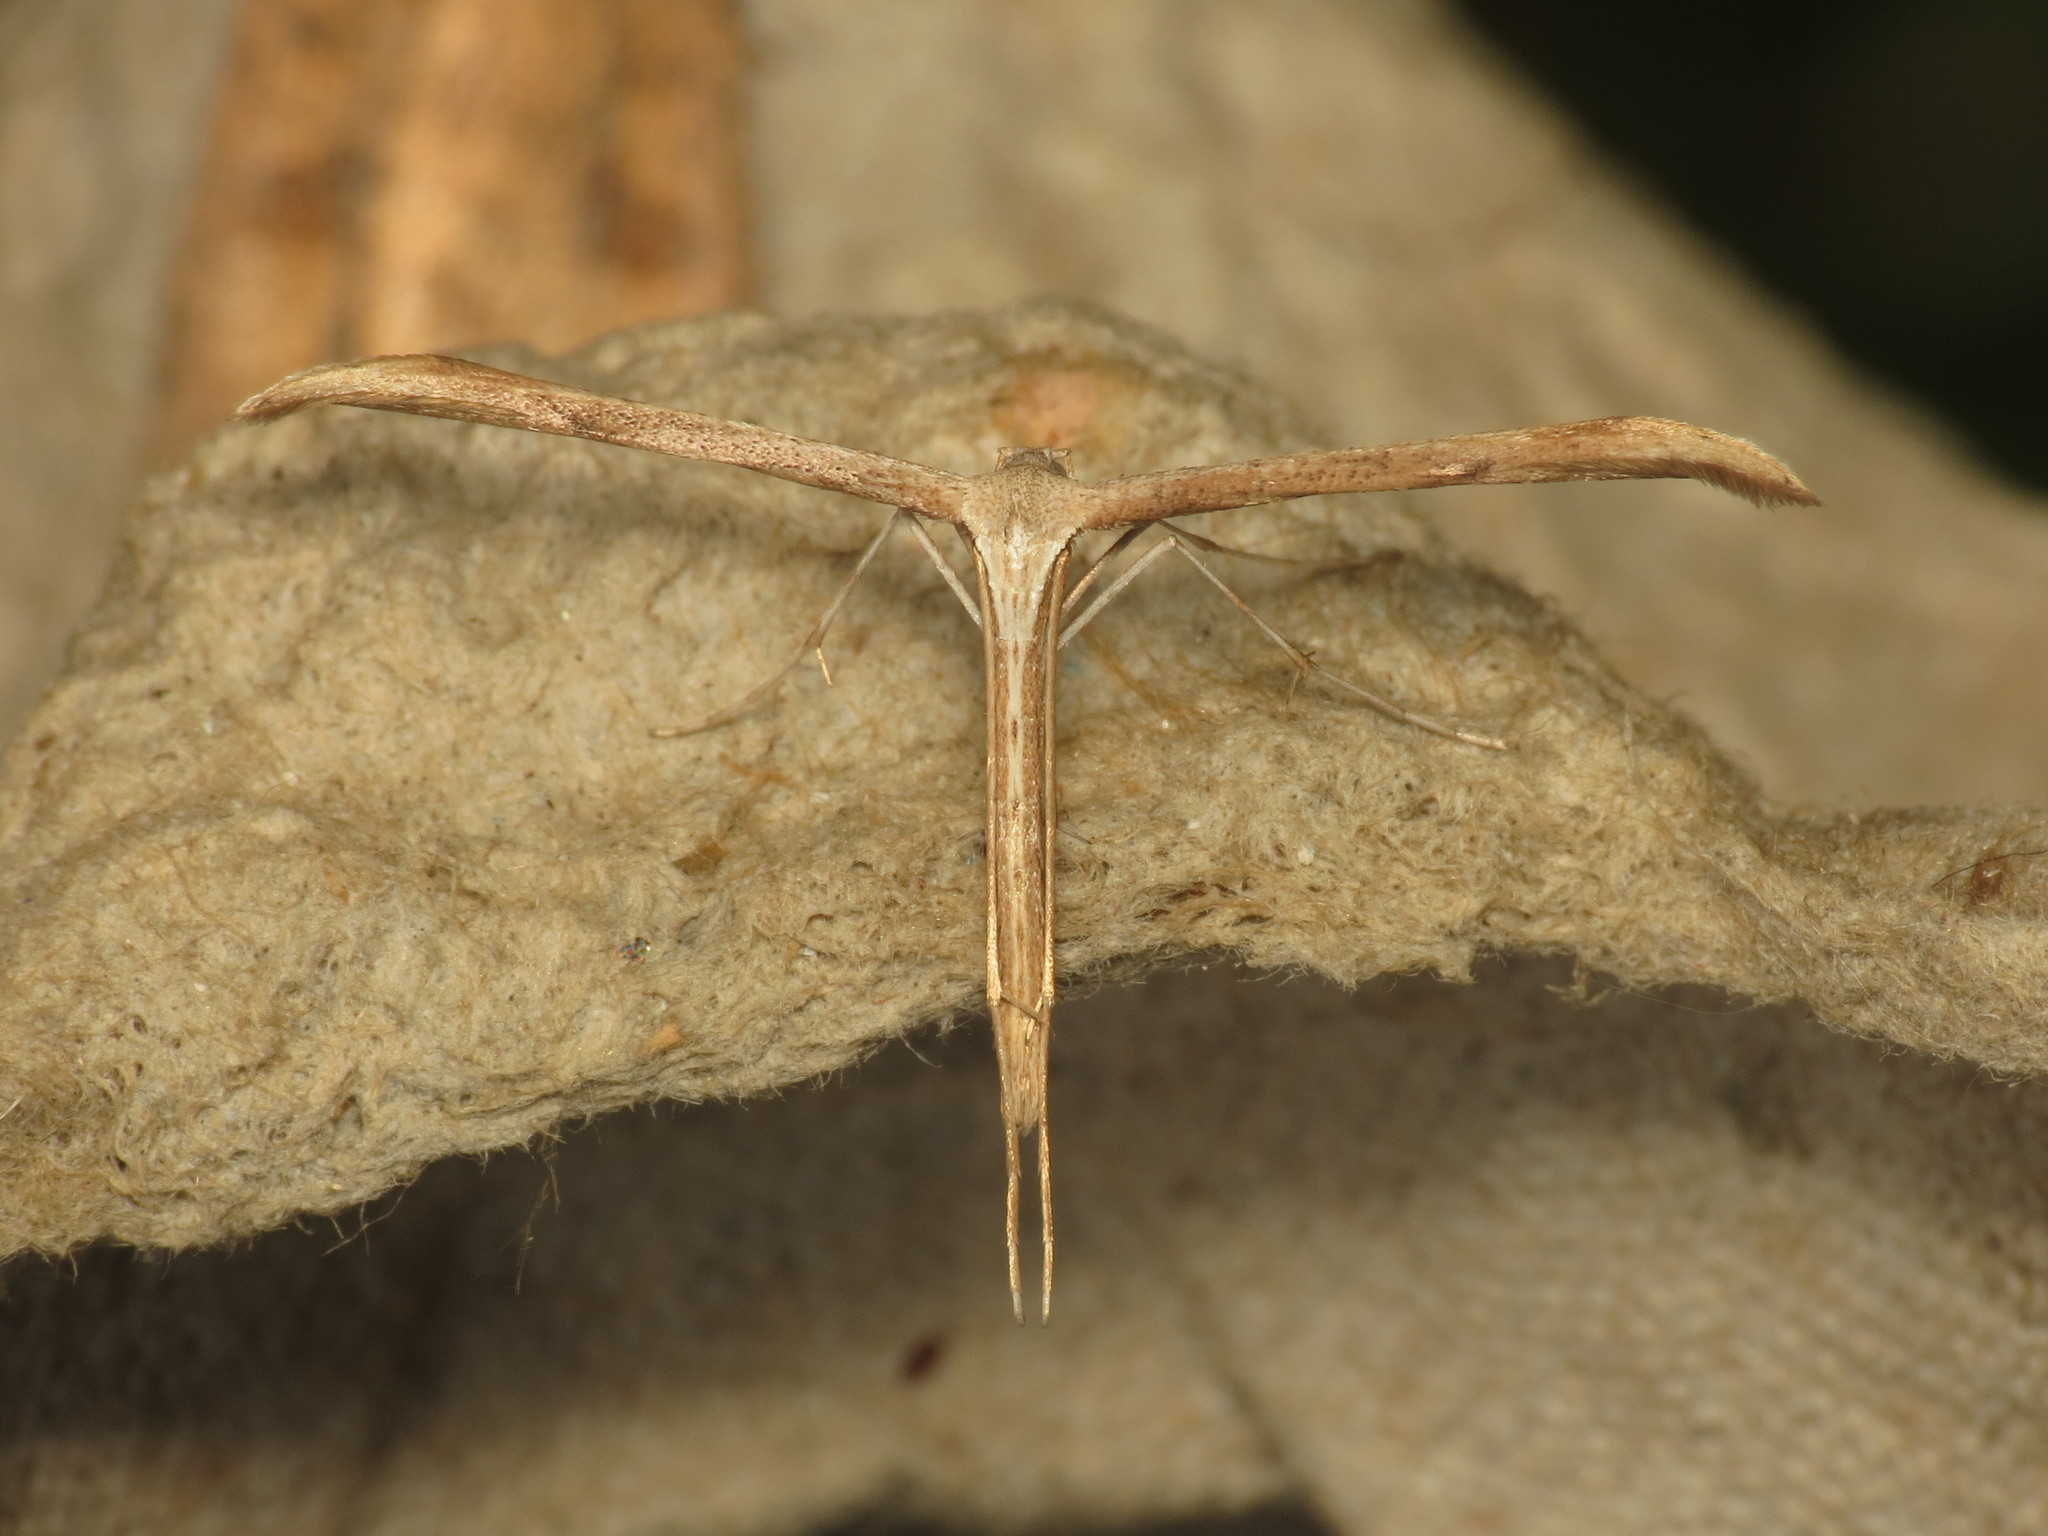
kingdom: Animalia
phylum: Arthropoda
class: Insecta
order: Lepidoptera
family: Pterophoridae
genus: Emmelina
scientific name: Emmelina monodactyla
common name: Common plume
